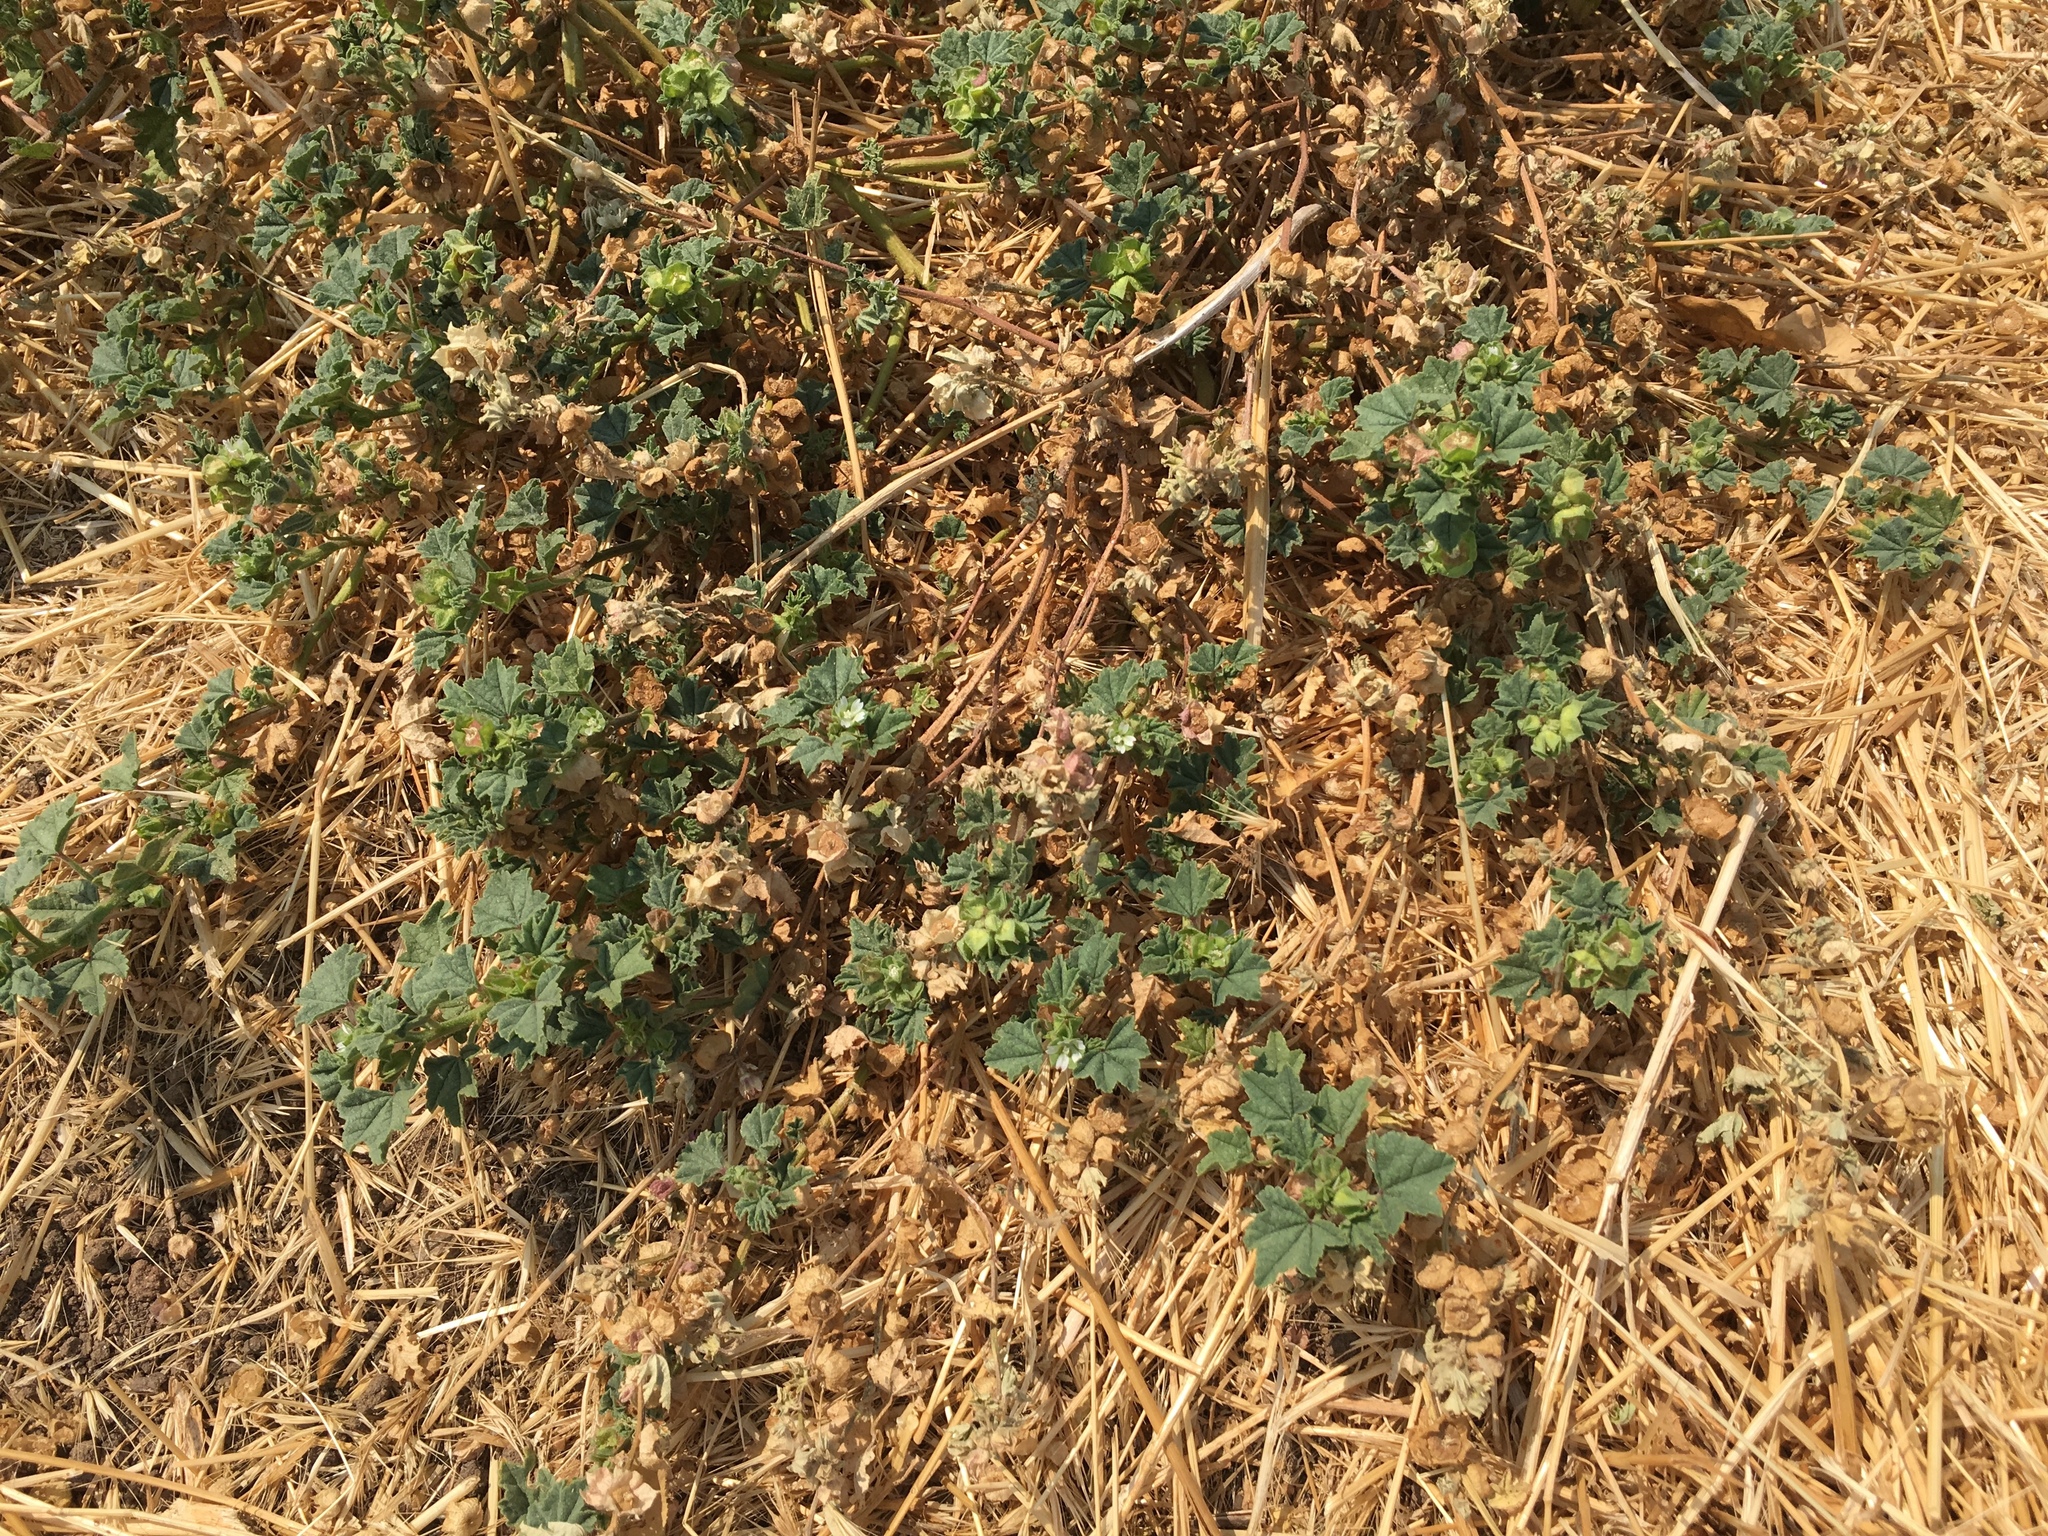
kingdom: Plantae
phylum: Tracheophyta
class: Magnoliopsida
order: Malvales
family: Malvaceae
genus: Malva
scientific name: Malva parviflora
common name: Least mallow
